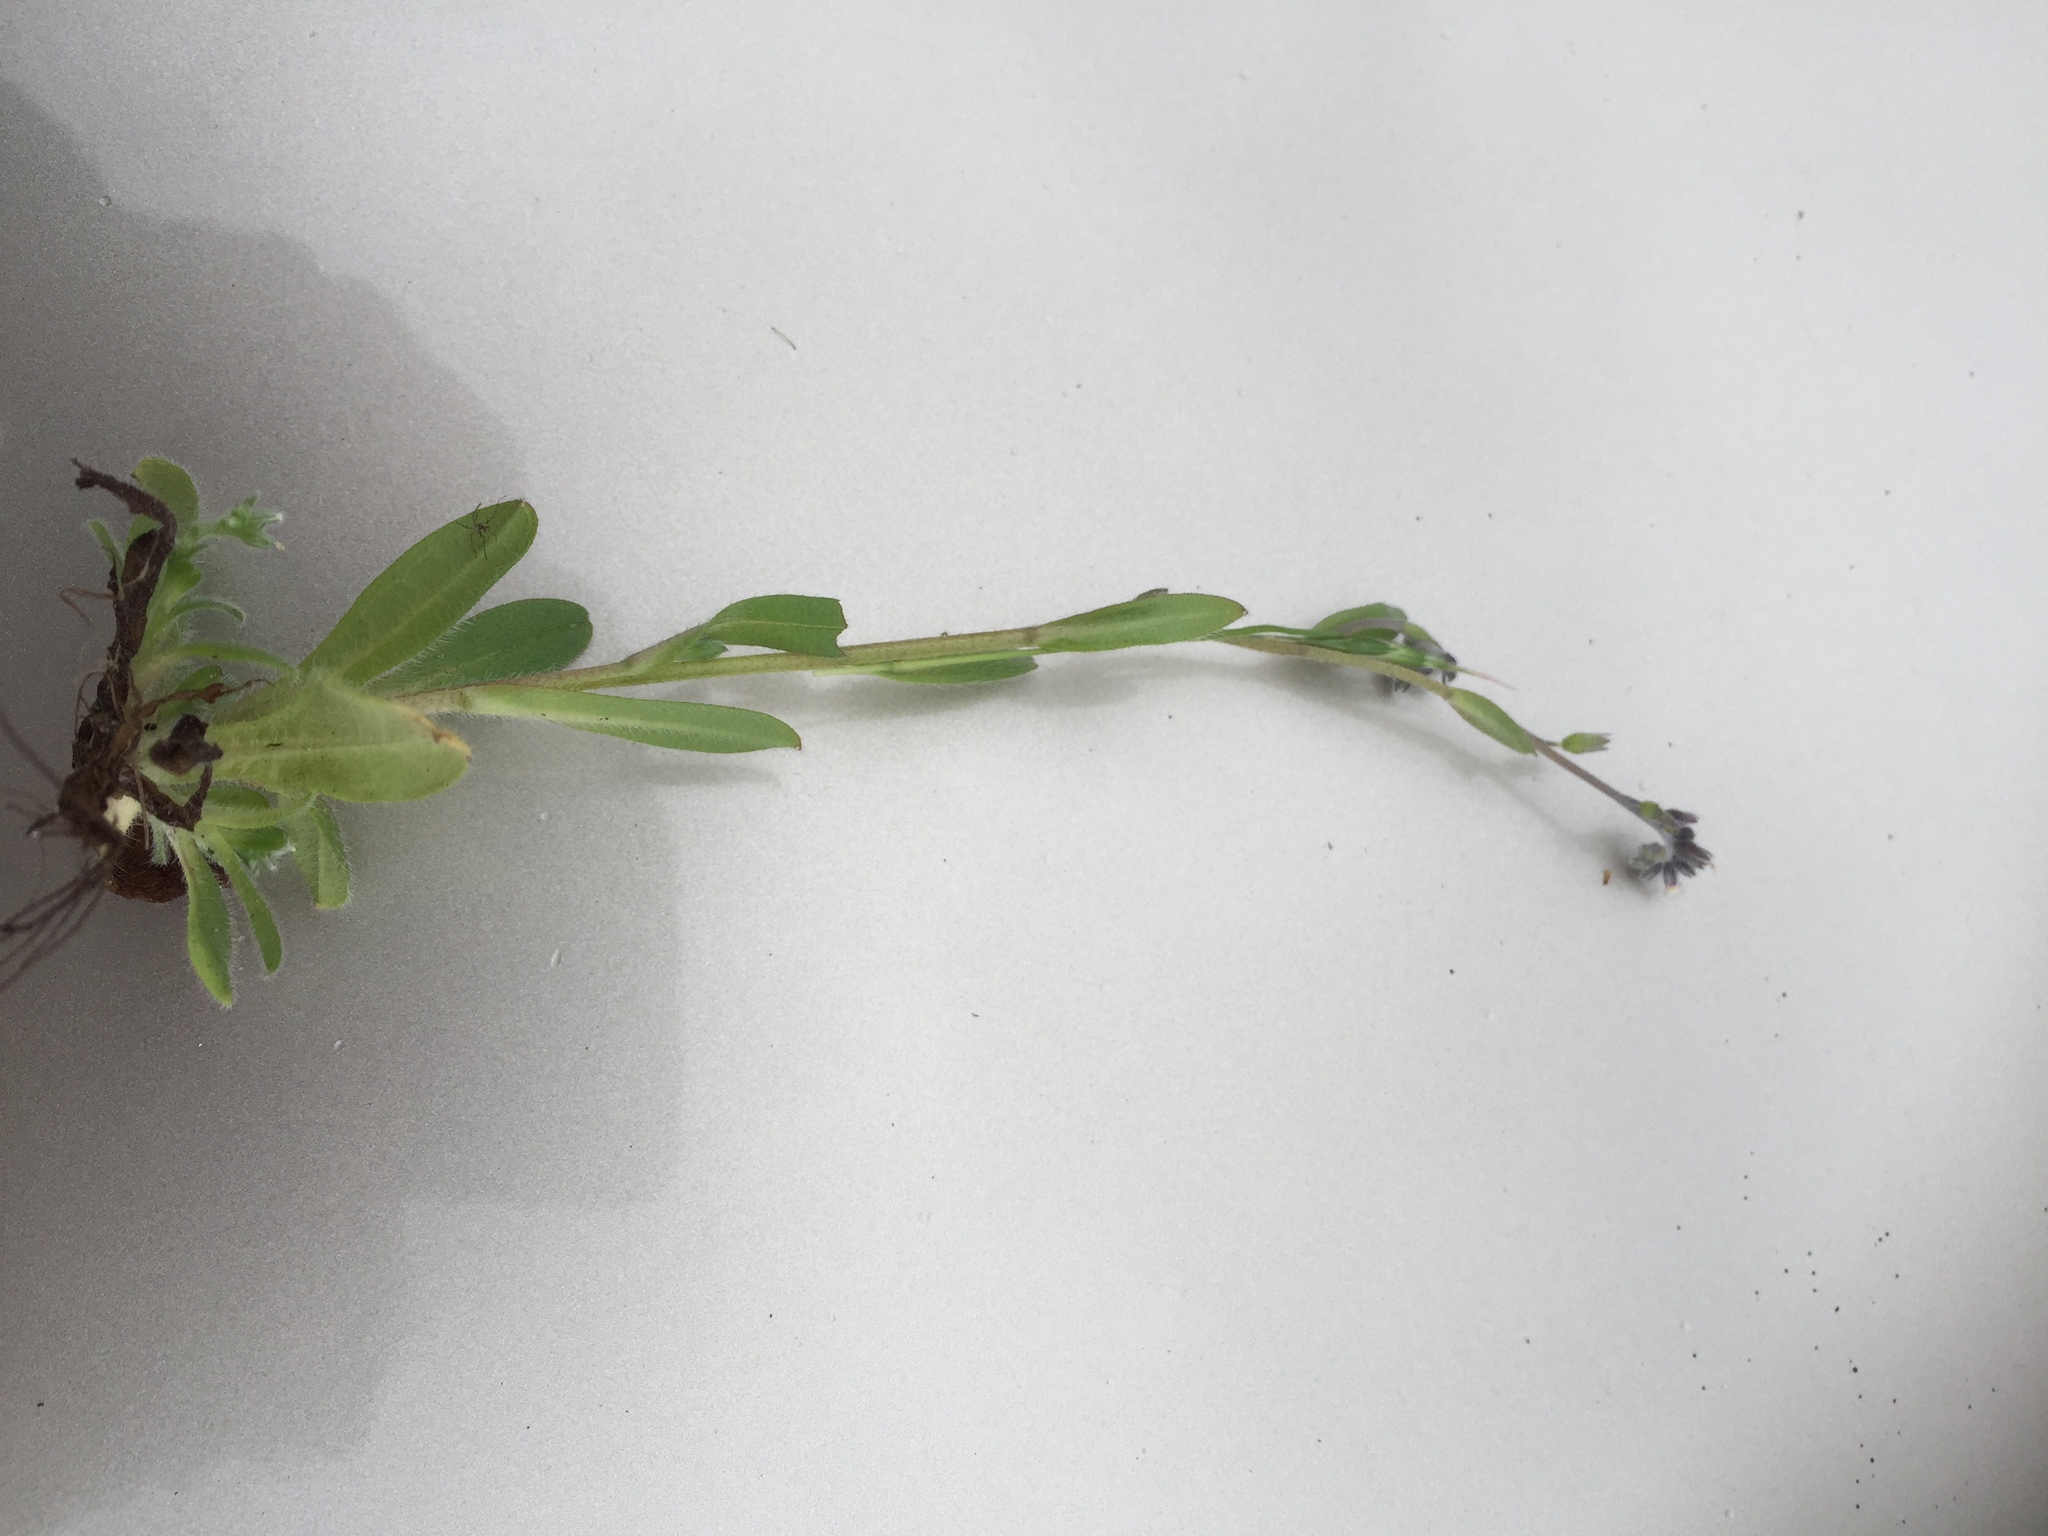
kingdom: Plantae
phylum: Tracheophyta
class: Magnoliopsida
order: Boraginales
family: Boraginaceae
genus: Myosotis
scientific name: Myosotis discolor
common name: Changing forget-me-not
